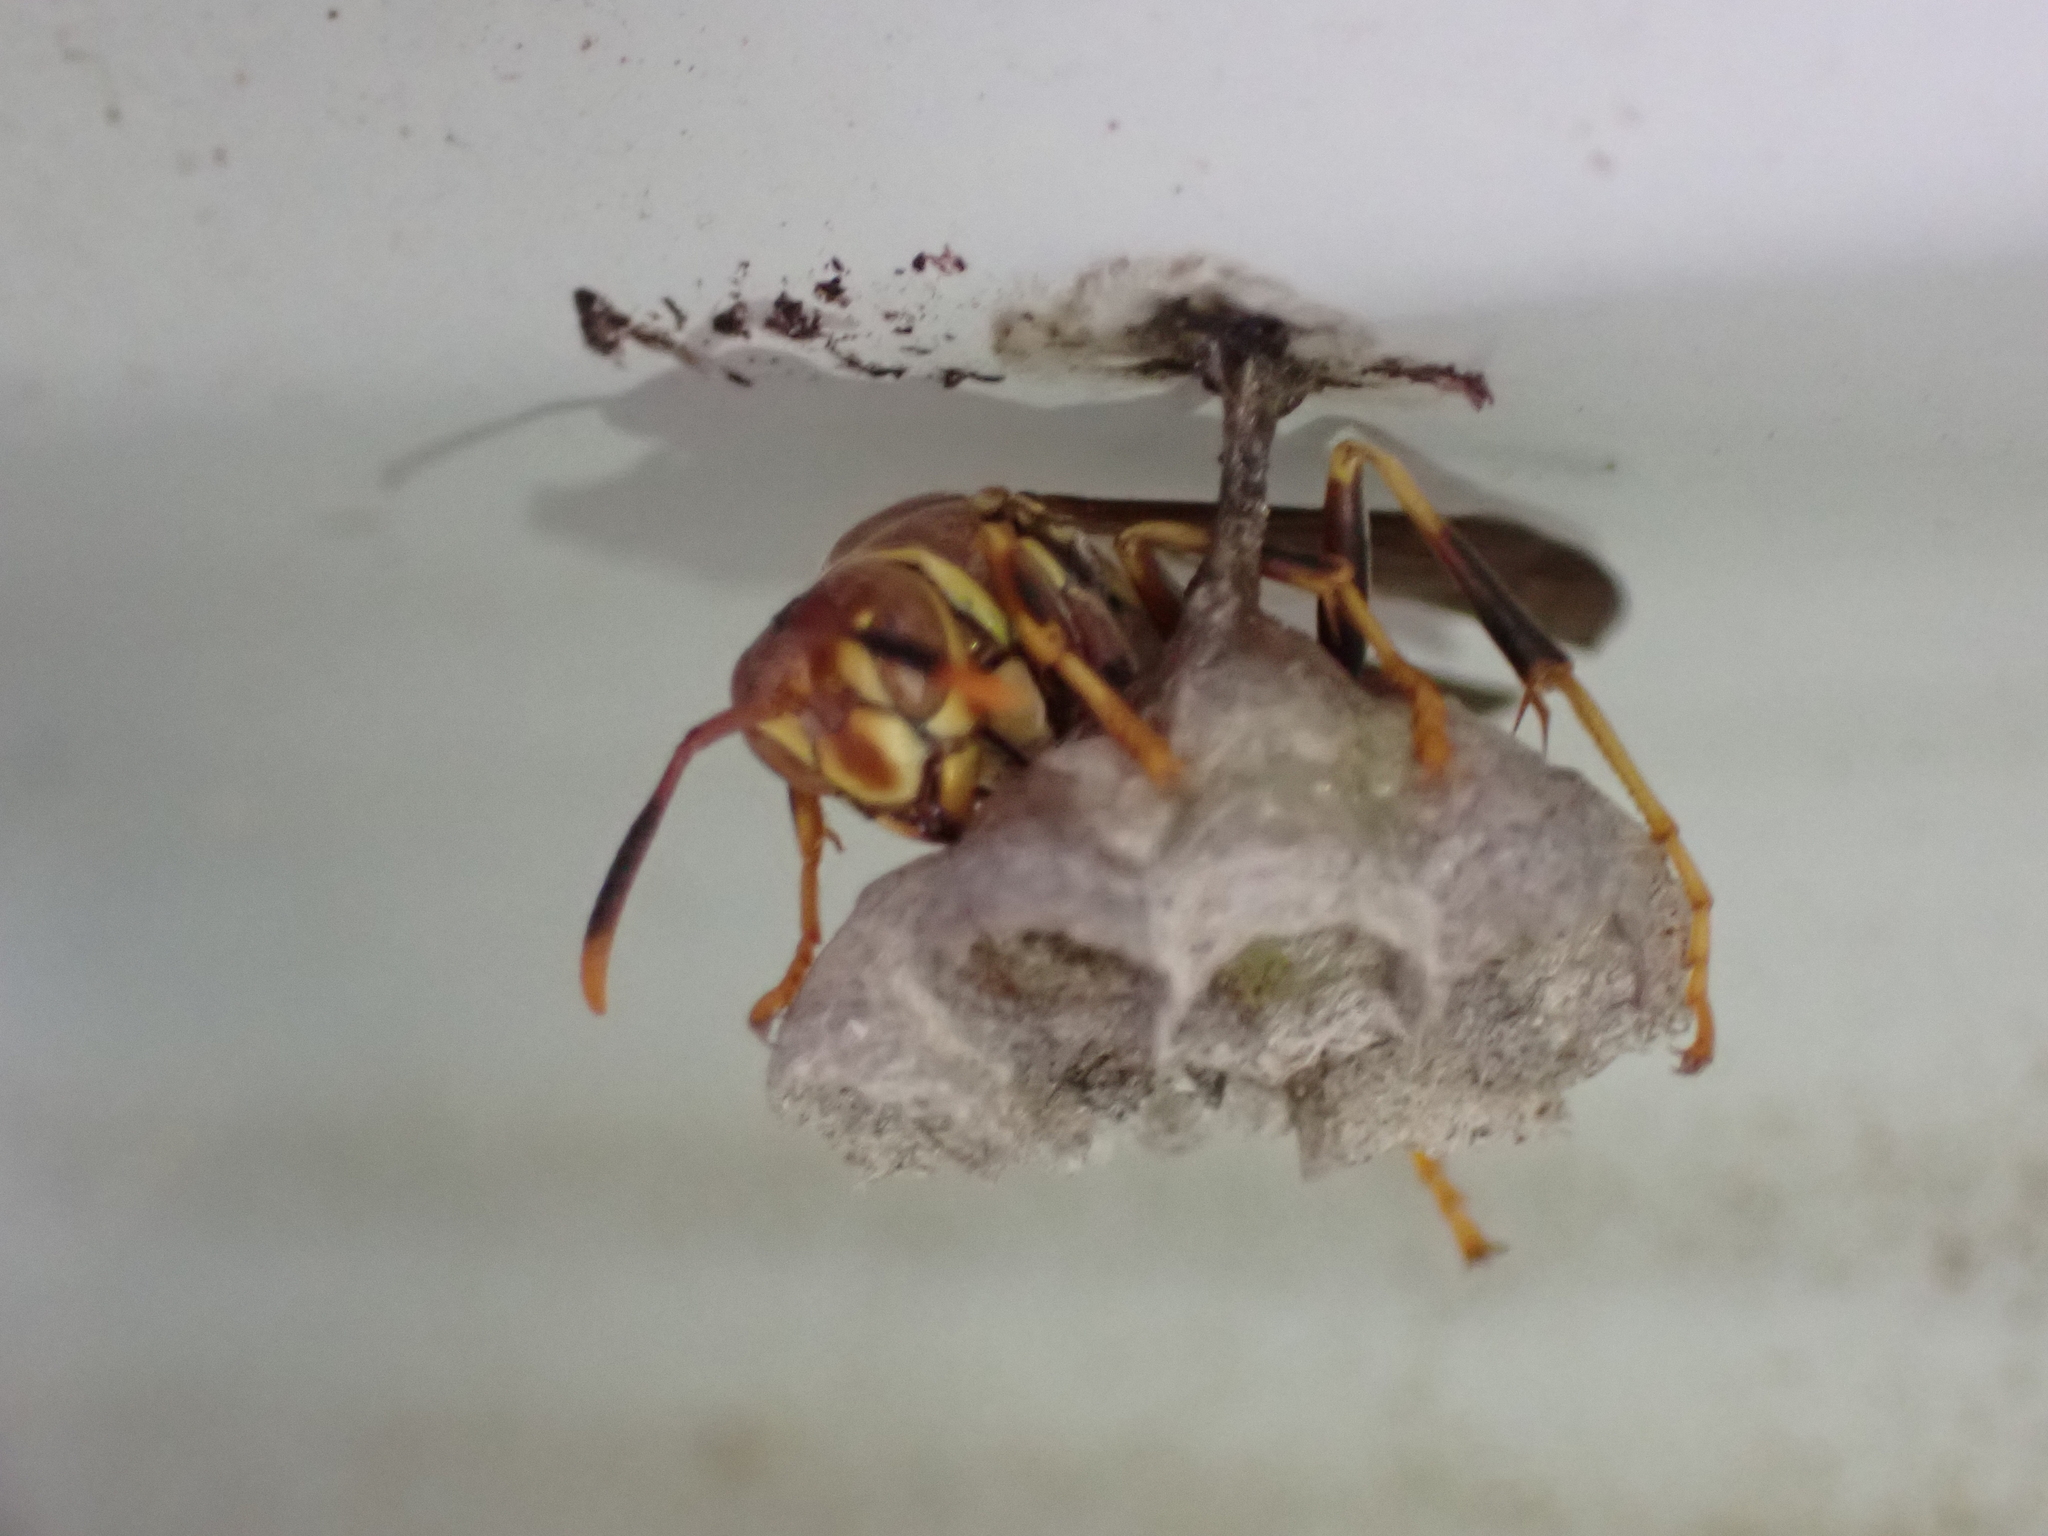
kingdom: Animalia
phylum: Arthropoda
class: Insecta
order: Hymenoptera
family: Eumenidae
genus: Polistes
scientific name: Polistes exclamans
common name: Paper wasp
